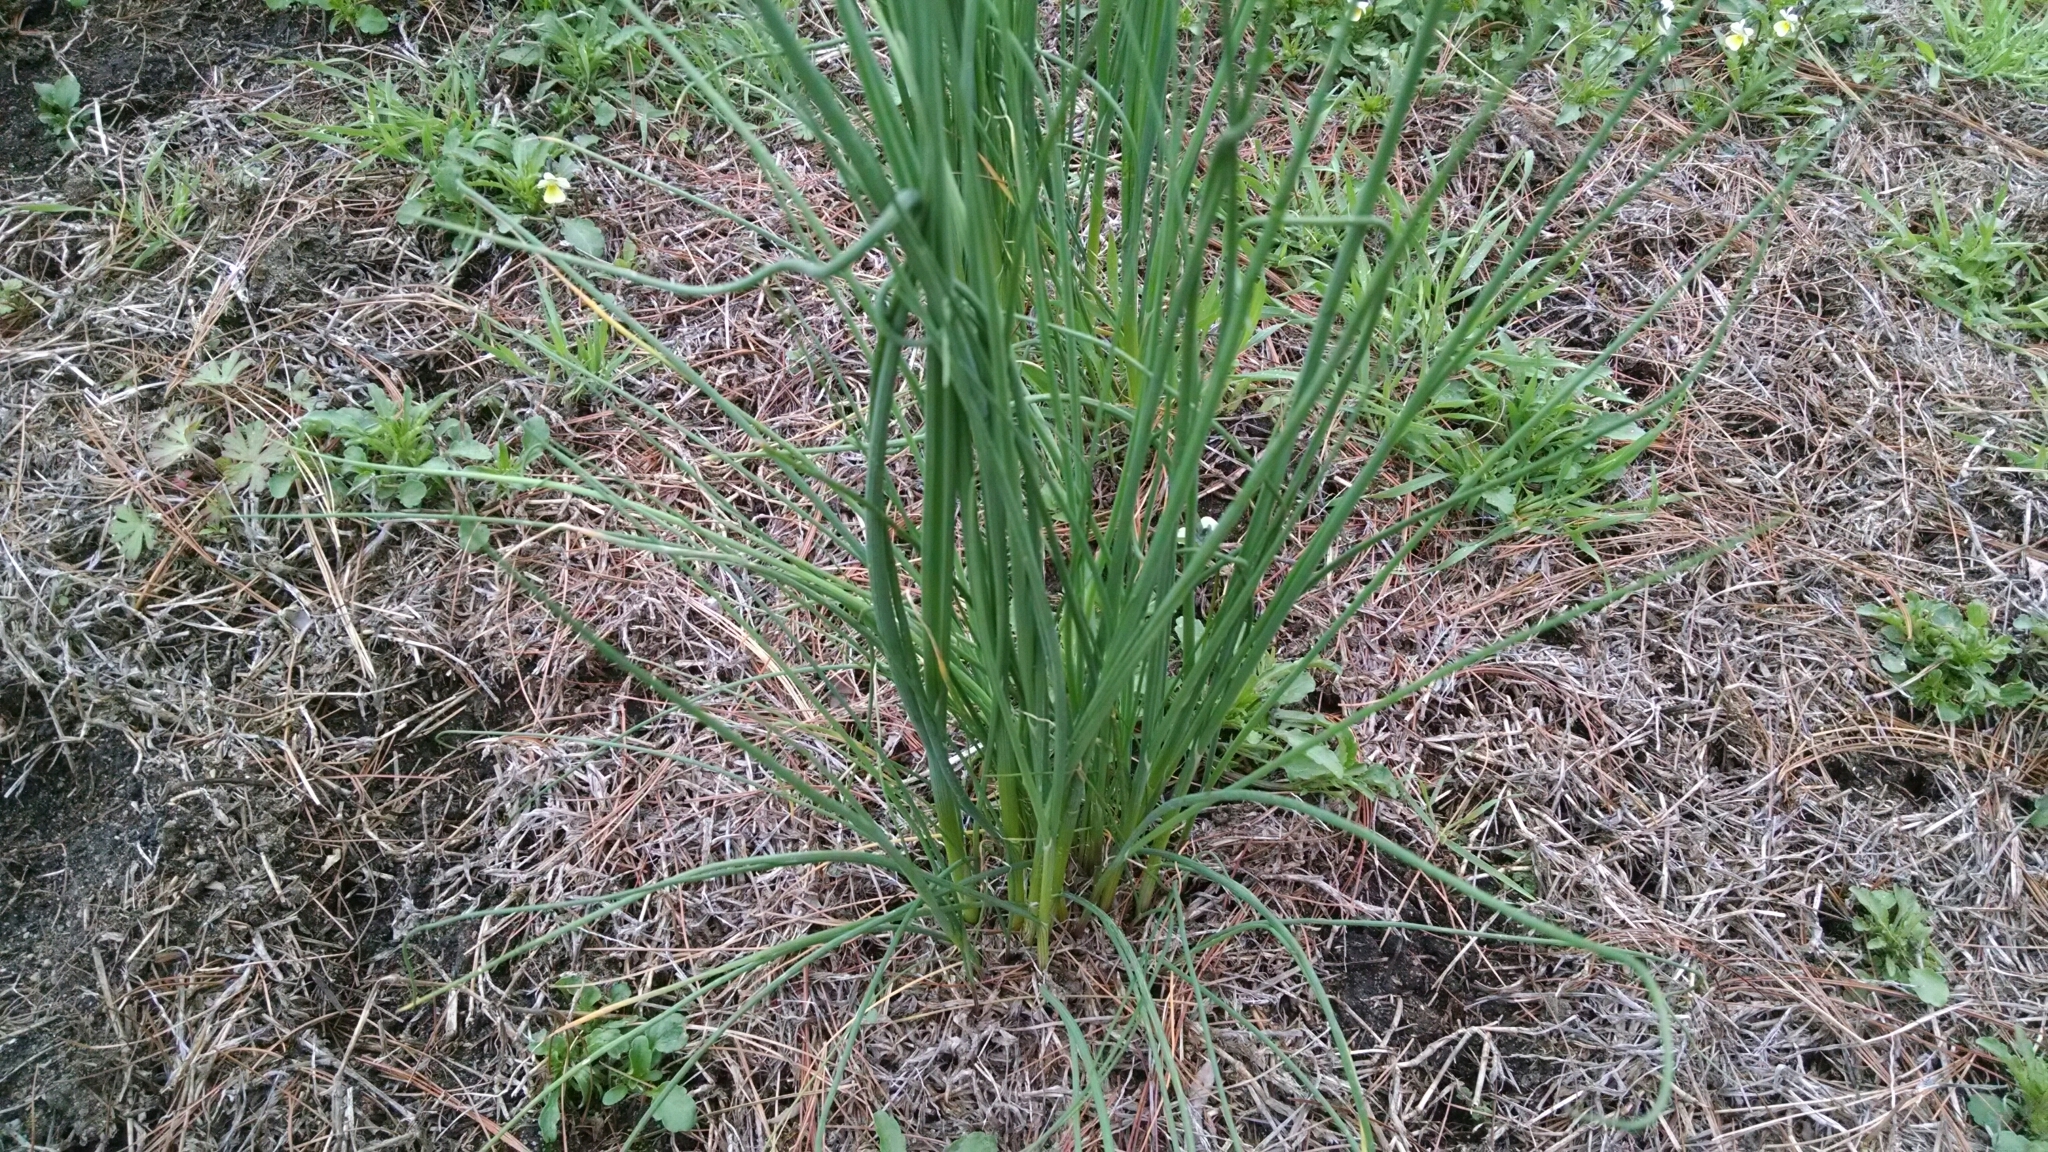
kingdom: Plantae
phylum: Tracheophyta
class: Liliopsida
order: Asparagales
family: Amaryllidaceae
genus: Allium
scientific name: Allium vineale
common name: Crow garlic
